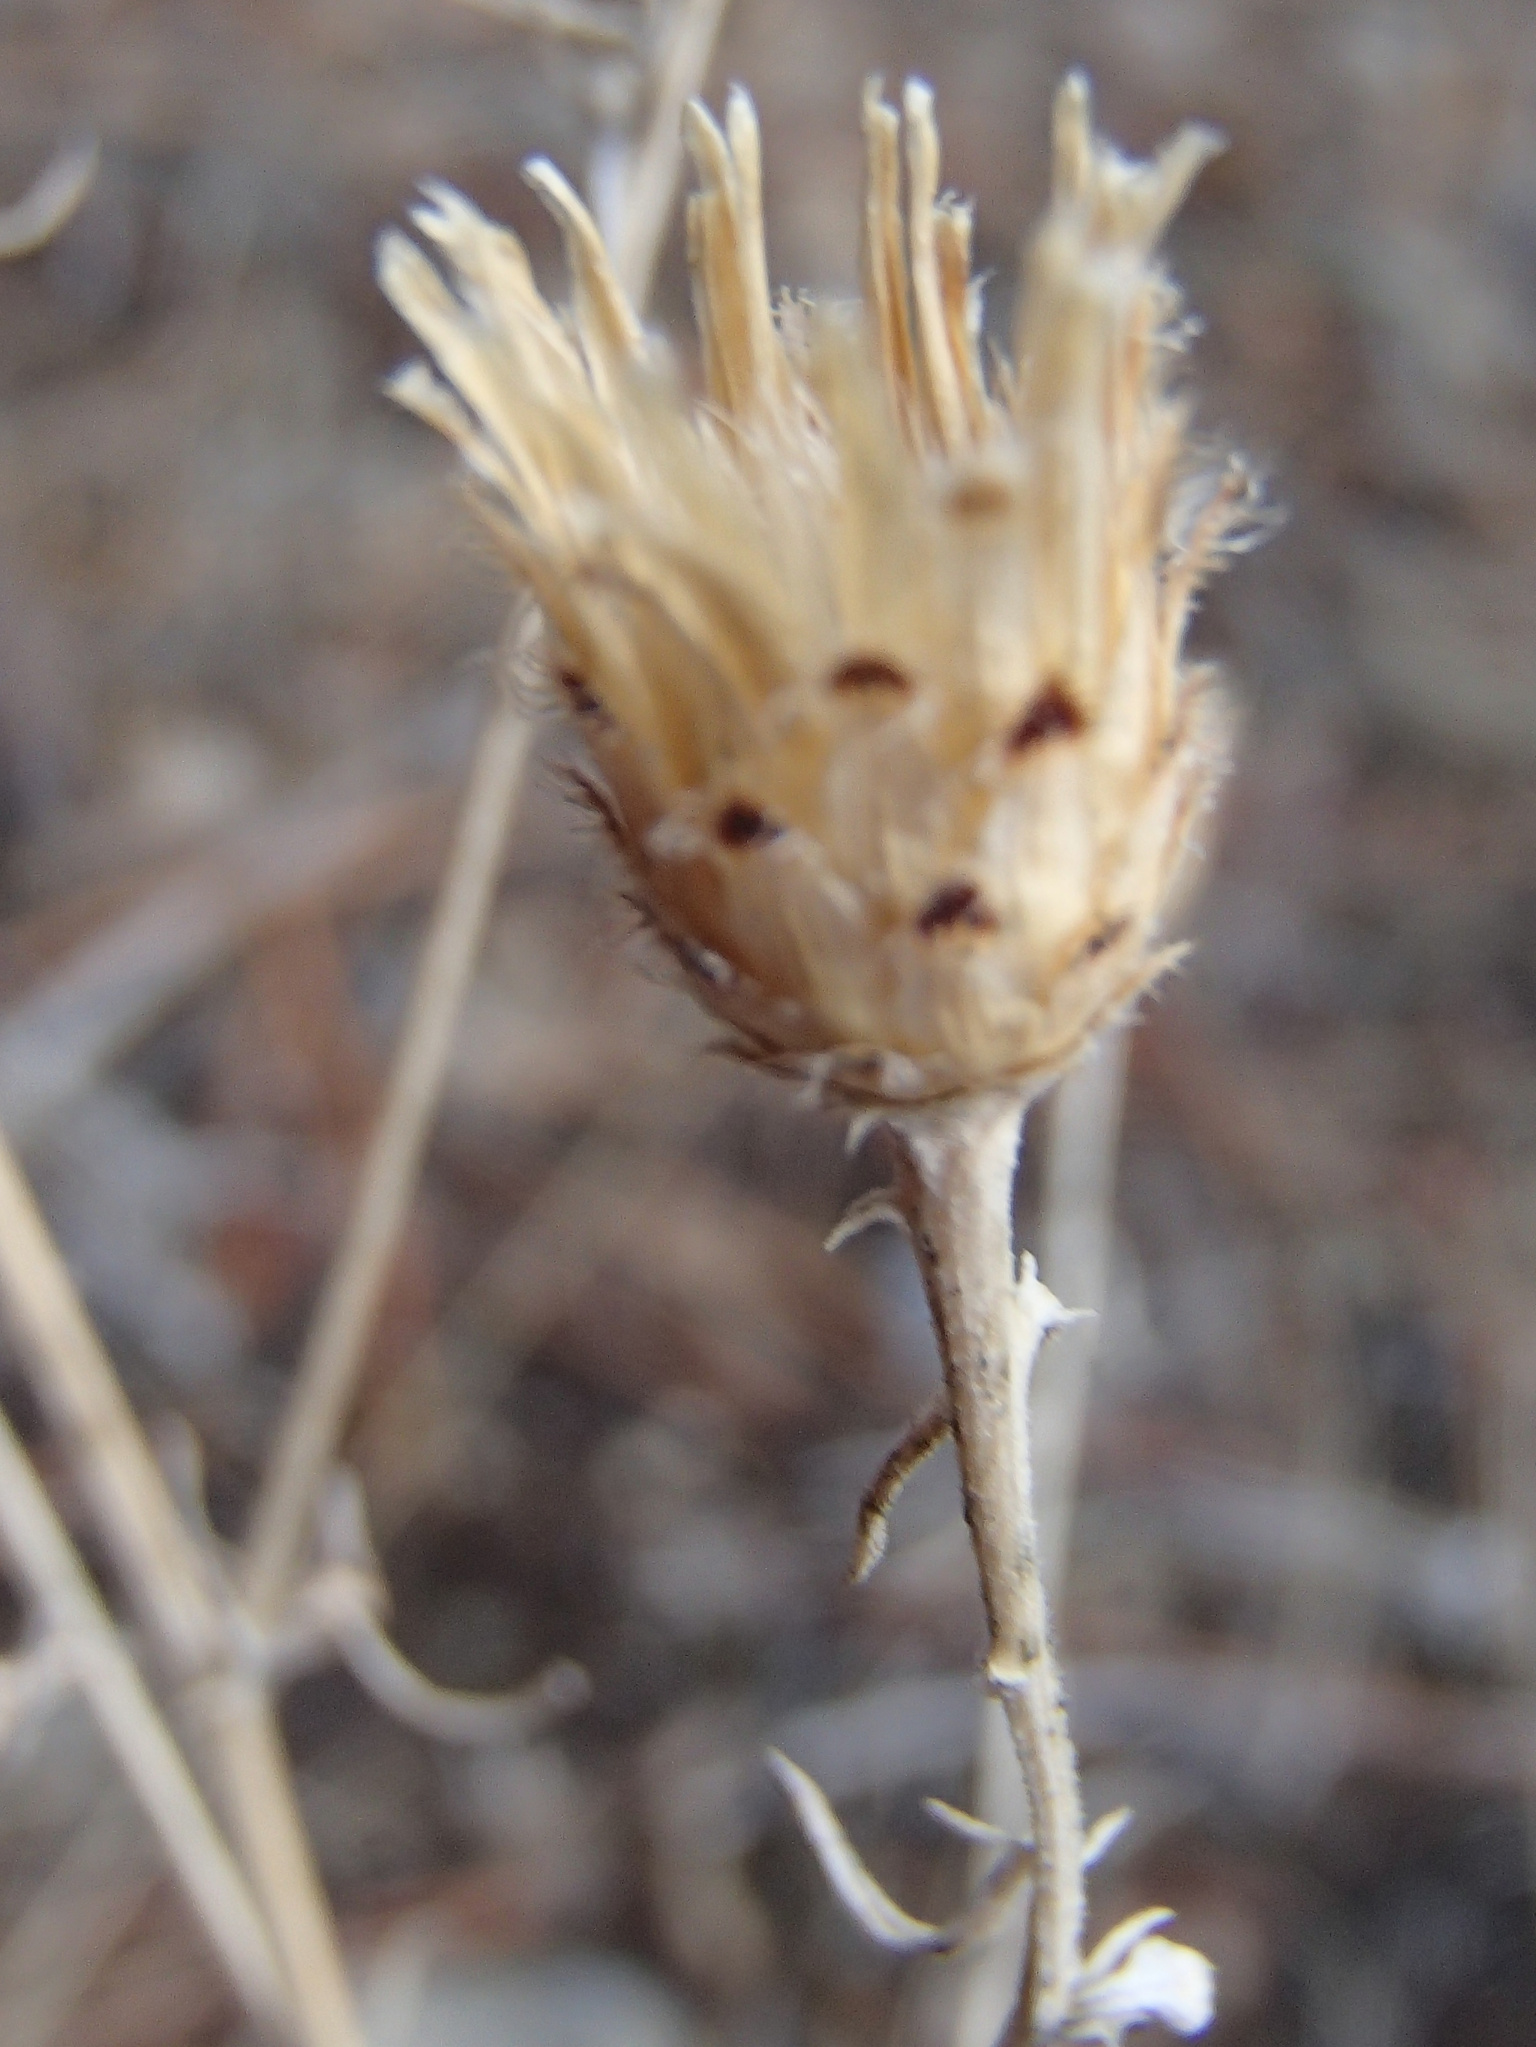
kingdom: Plantae
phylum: Tracheophyta
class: Magnoliopsida
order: Asterales
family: Asteraceae
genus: Centaurea
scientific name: Centaurea stoebe
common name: Spotted knapweed
